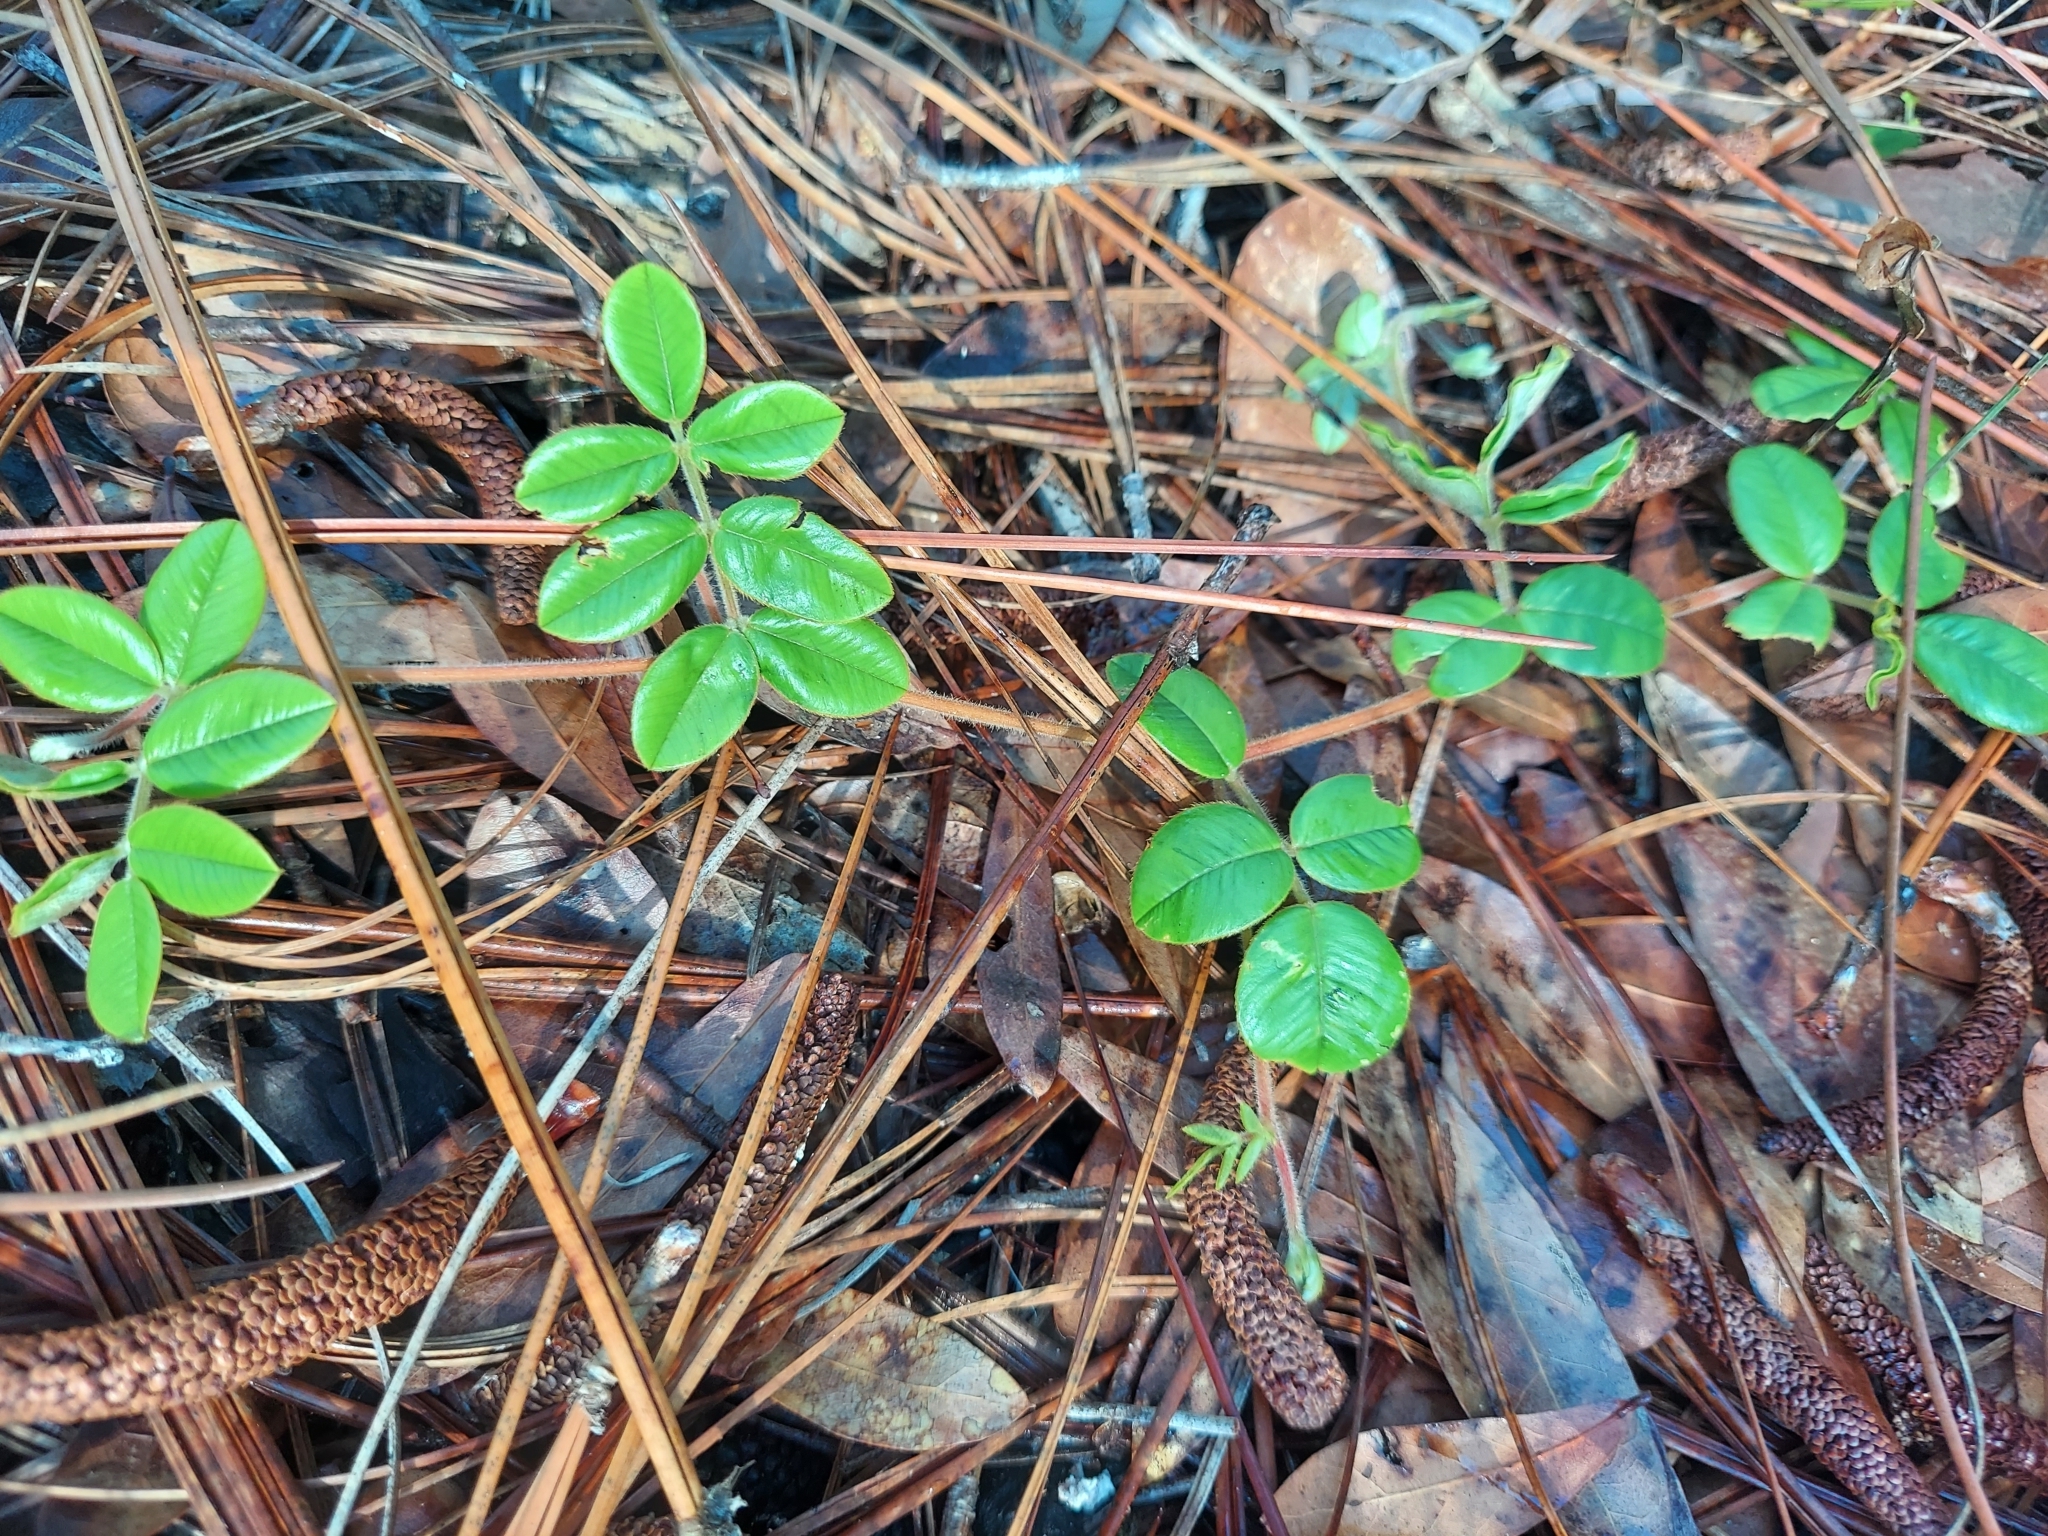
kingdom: Plantae
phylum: Tracheophyta
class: Magnoliopsida
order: Fabales
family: Fabaceae
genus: Tephrosia
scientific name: Tephrosia chrysophylla
